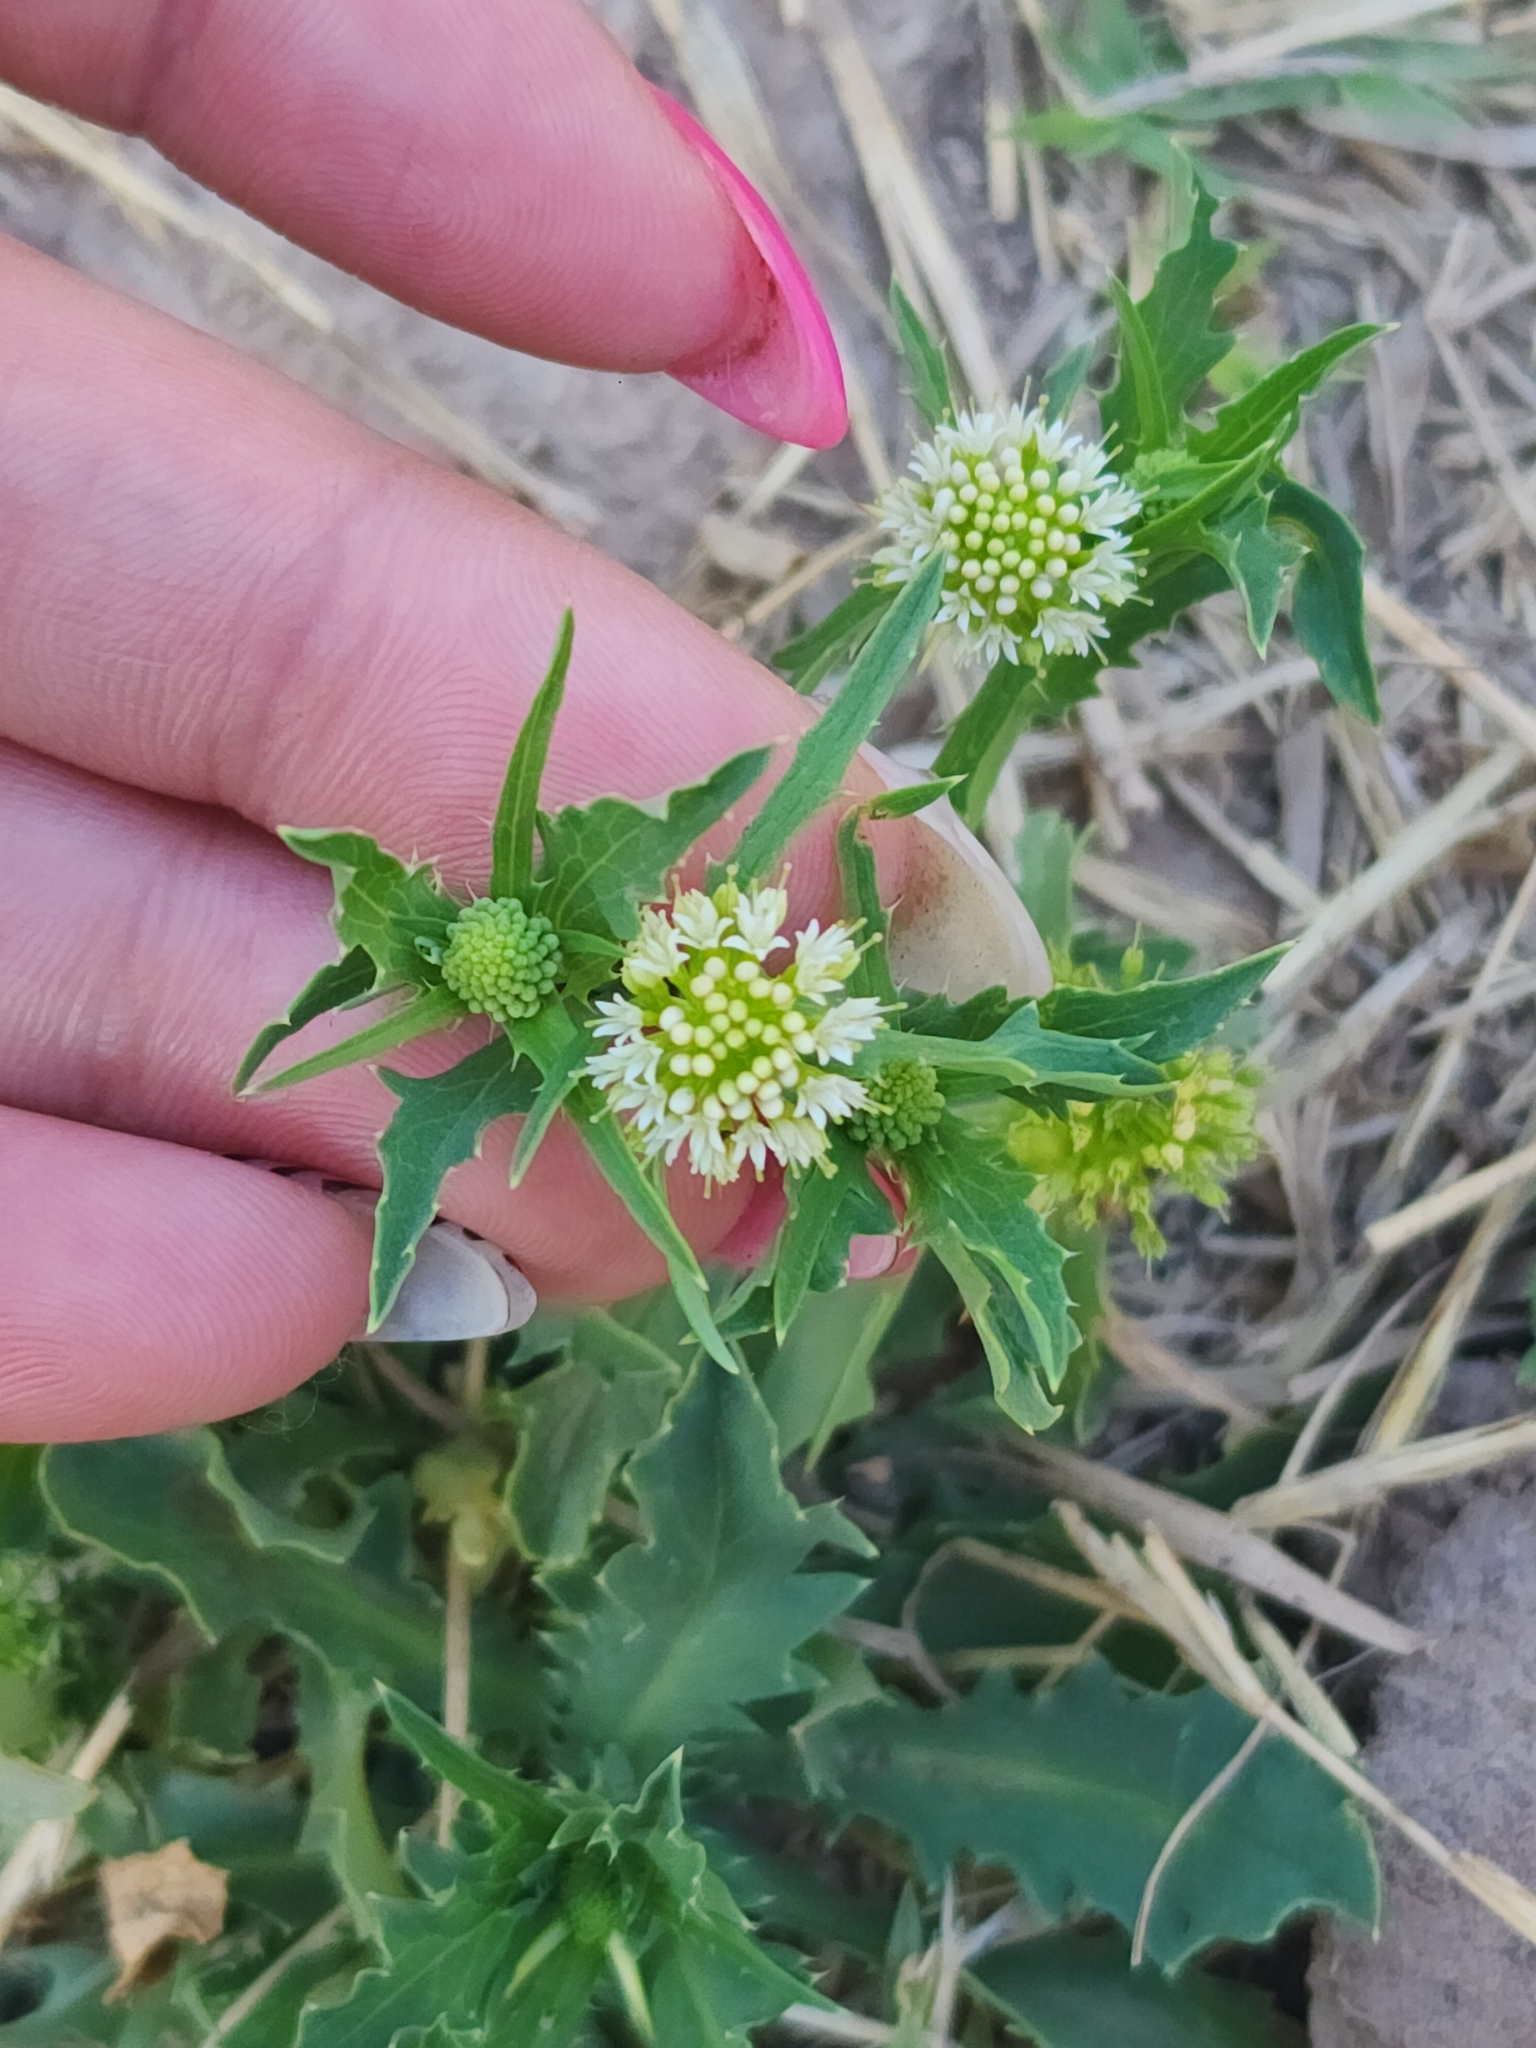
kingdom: Plantae
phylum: Tracheophyta
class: Magnoliopsida
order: Asterales
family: Calyceraceae
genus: Acicarpha
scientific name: Acicarpha tribuloides
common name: Madam gorgon
